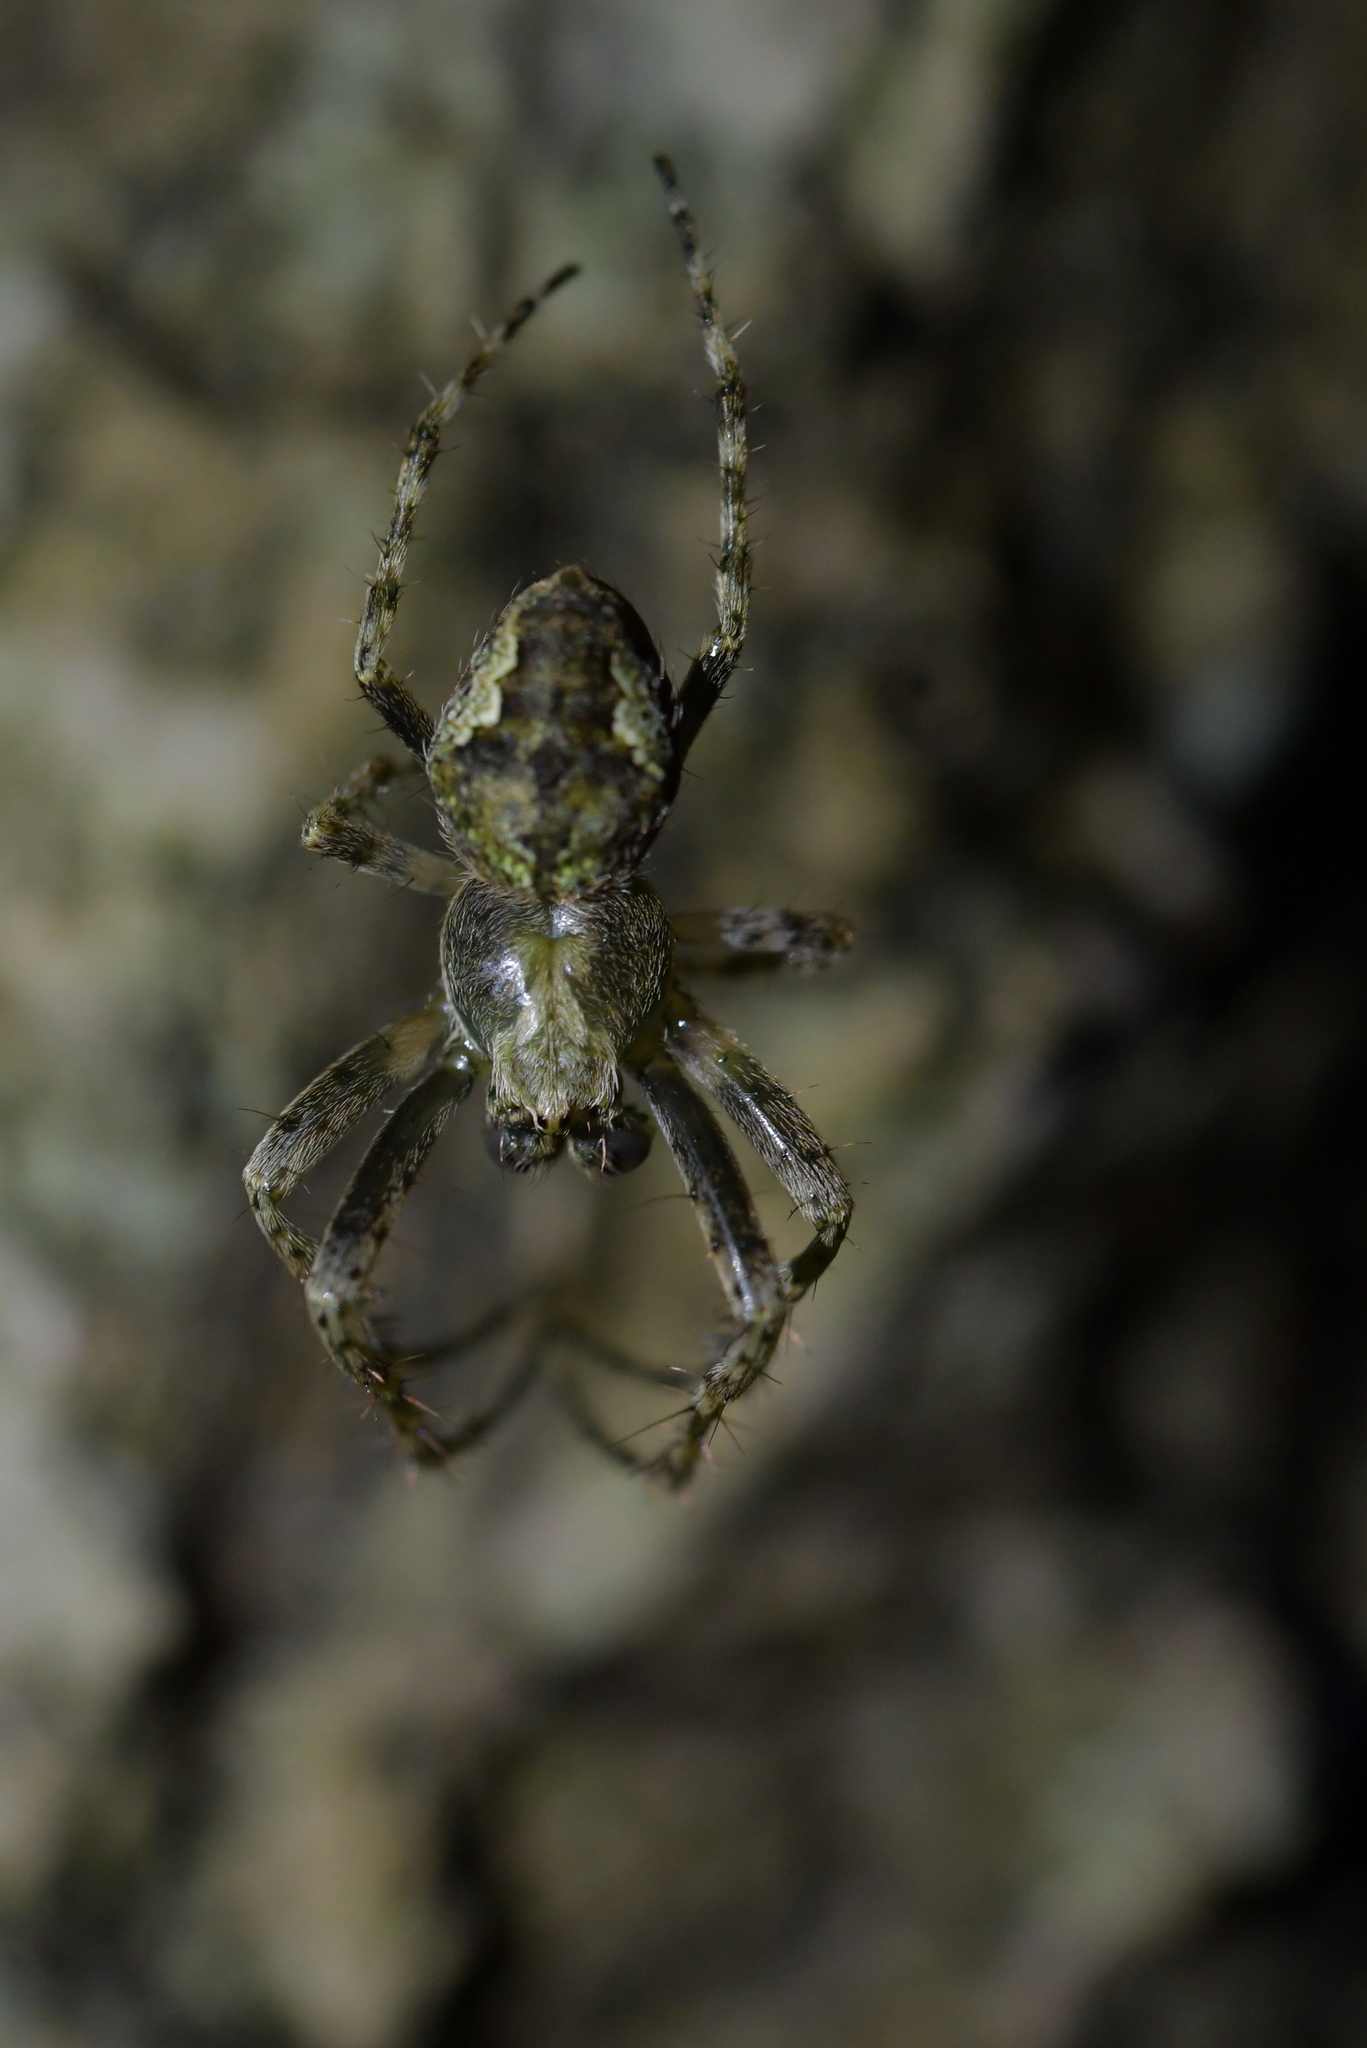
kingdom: Animalia
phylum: Arthropoda
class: Arachnida
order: Araneae
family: Araneidae
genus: Eriophora
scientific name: Eriophora pustulosa
